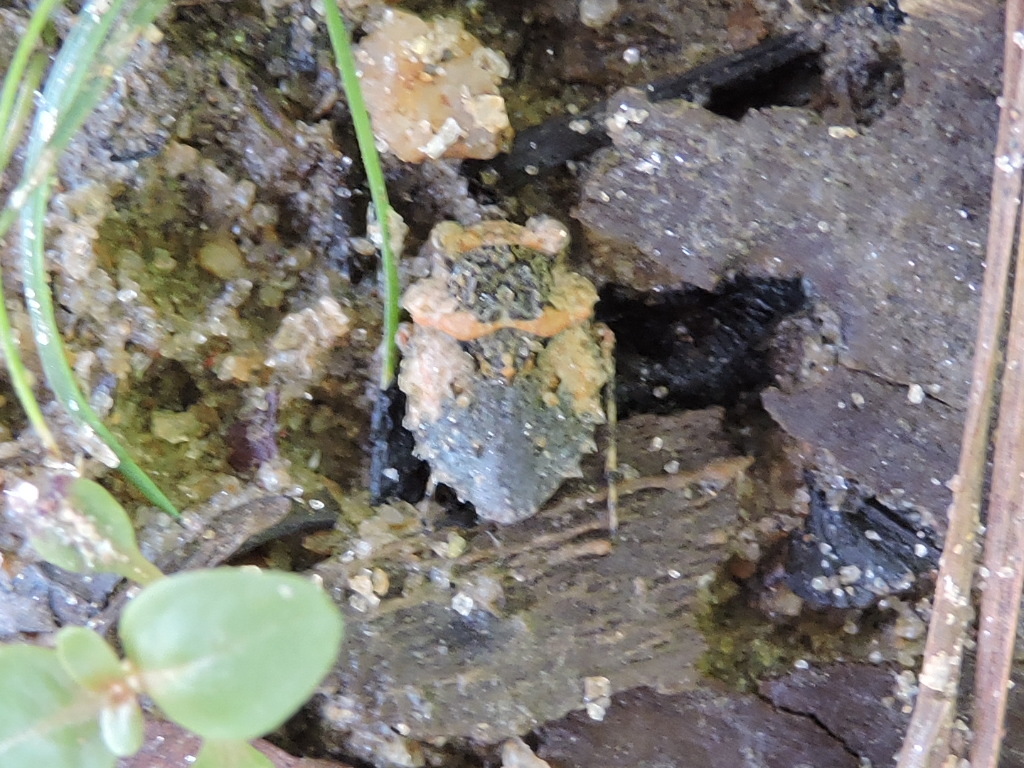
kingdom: Animalia
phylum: Arthropoda
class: Insecta
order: Hemiptera
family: Gelastocoridae
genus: Gelastocoris
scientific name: Gelastocoris oculatus
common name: Toad bug
